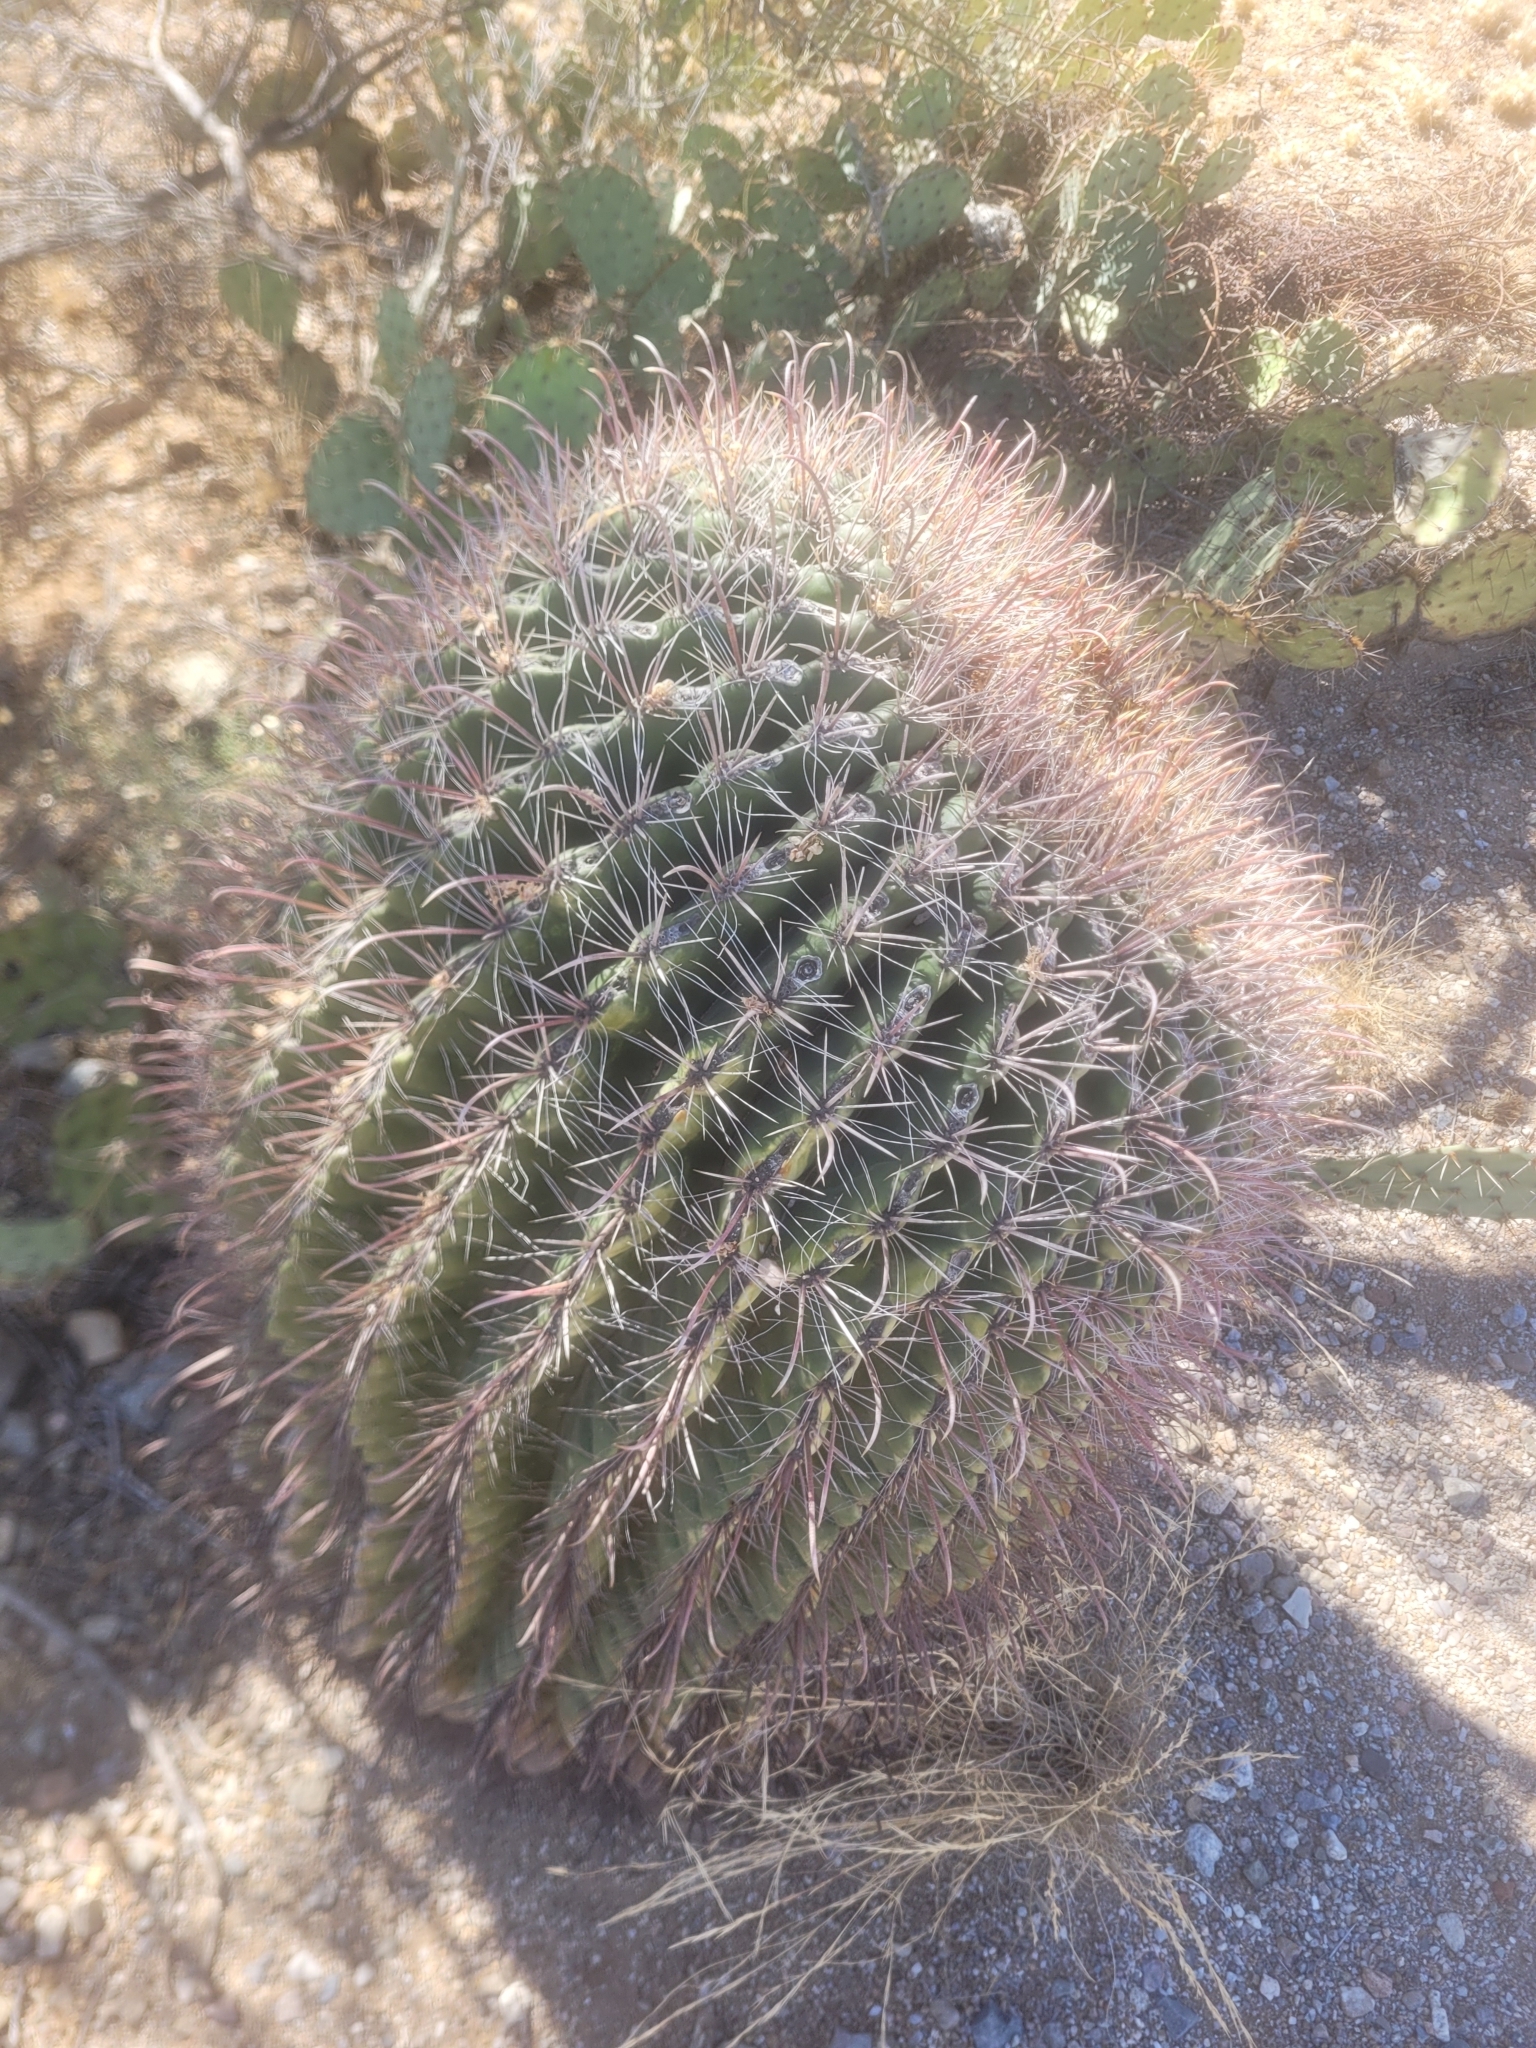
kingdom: Plantae
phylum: Tracheophyta
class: Magnoliopsida
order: Caryophyllales
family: Cactaceae
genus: Ferocactus
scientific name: Ferocactus wislizeni
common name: Candy barrel cactus
